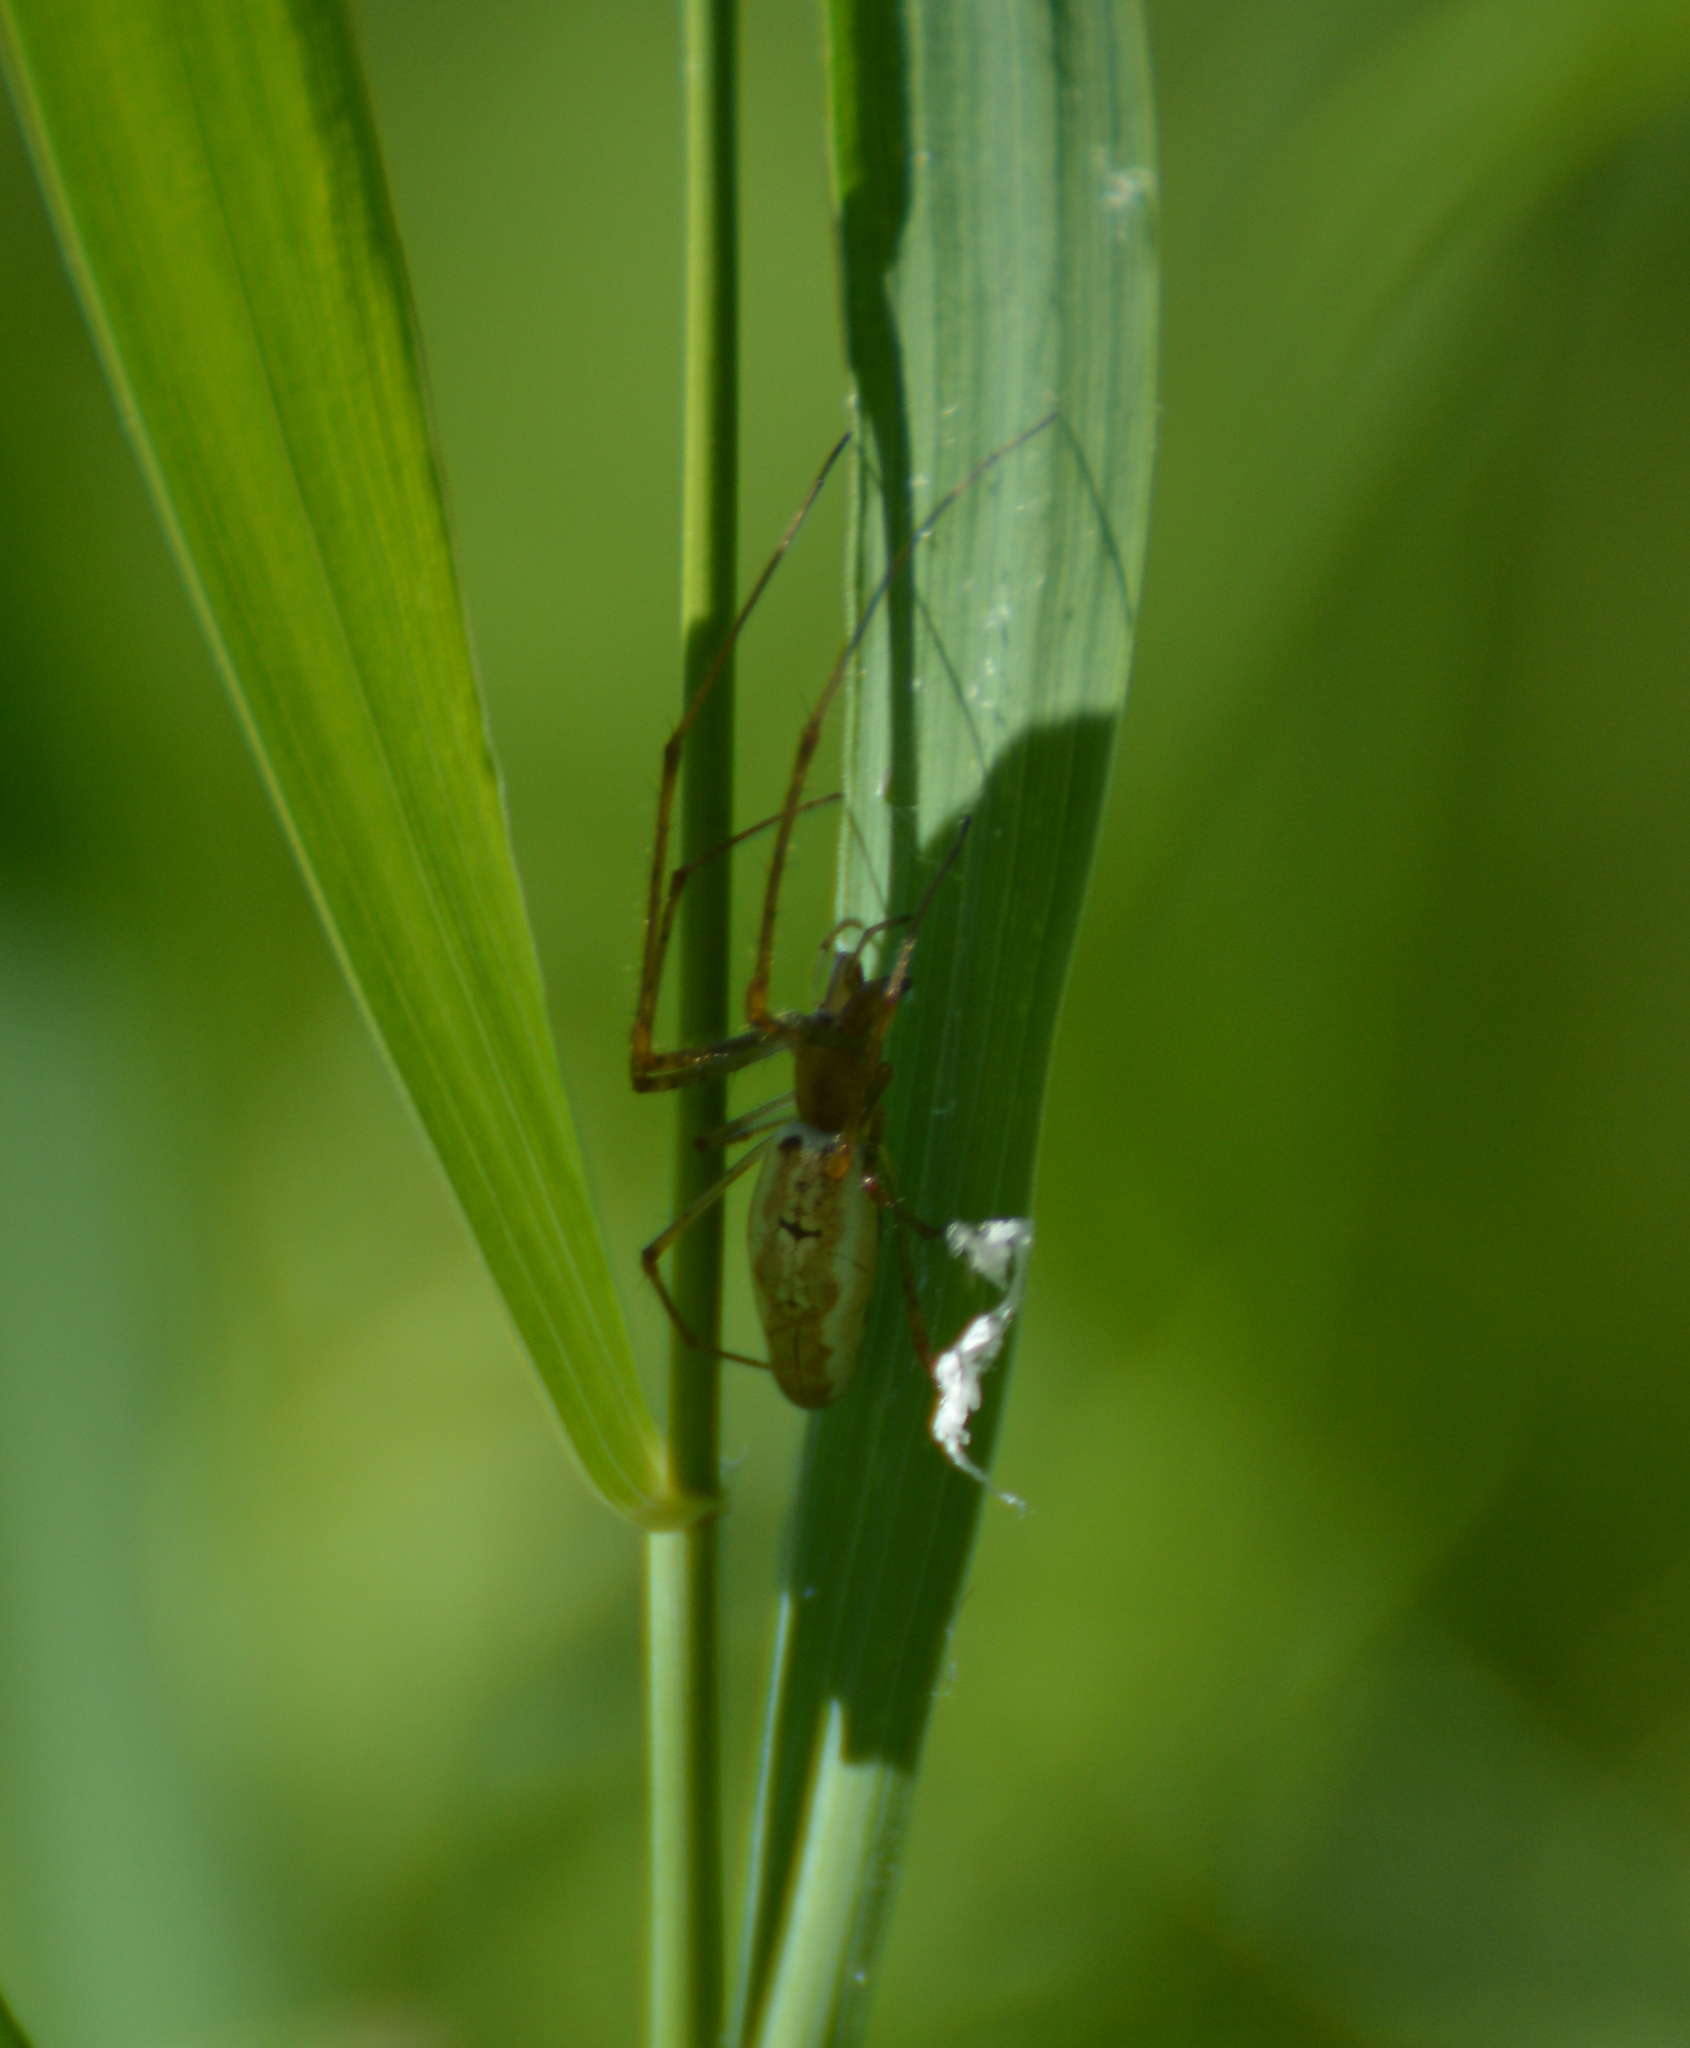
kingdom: Animalia
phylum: Arthropoda
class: Arachnida
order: Araneae
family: Tetragnathidae
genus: Tetragnatha
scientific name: Tetragnatha
